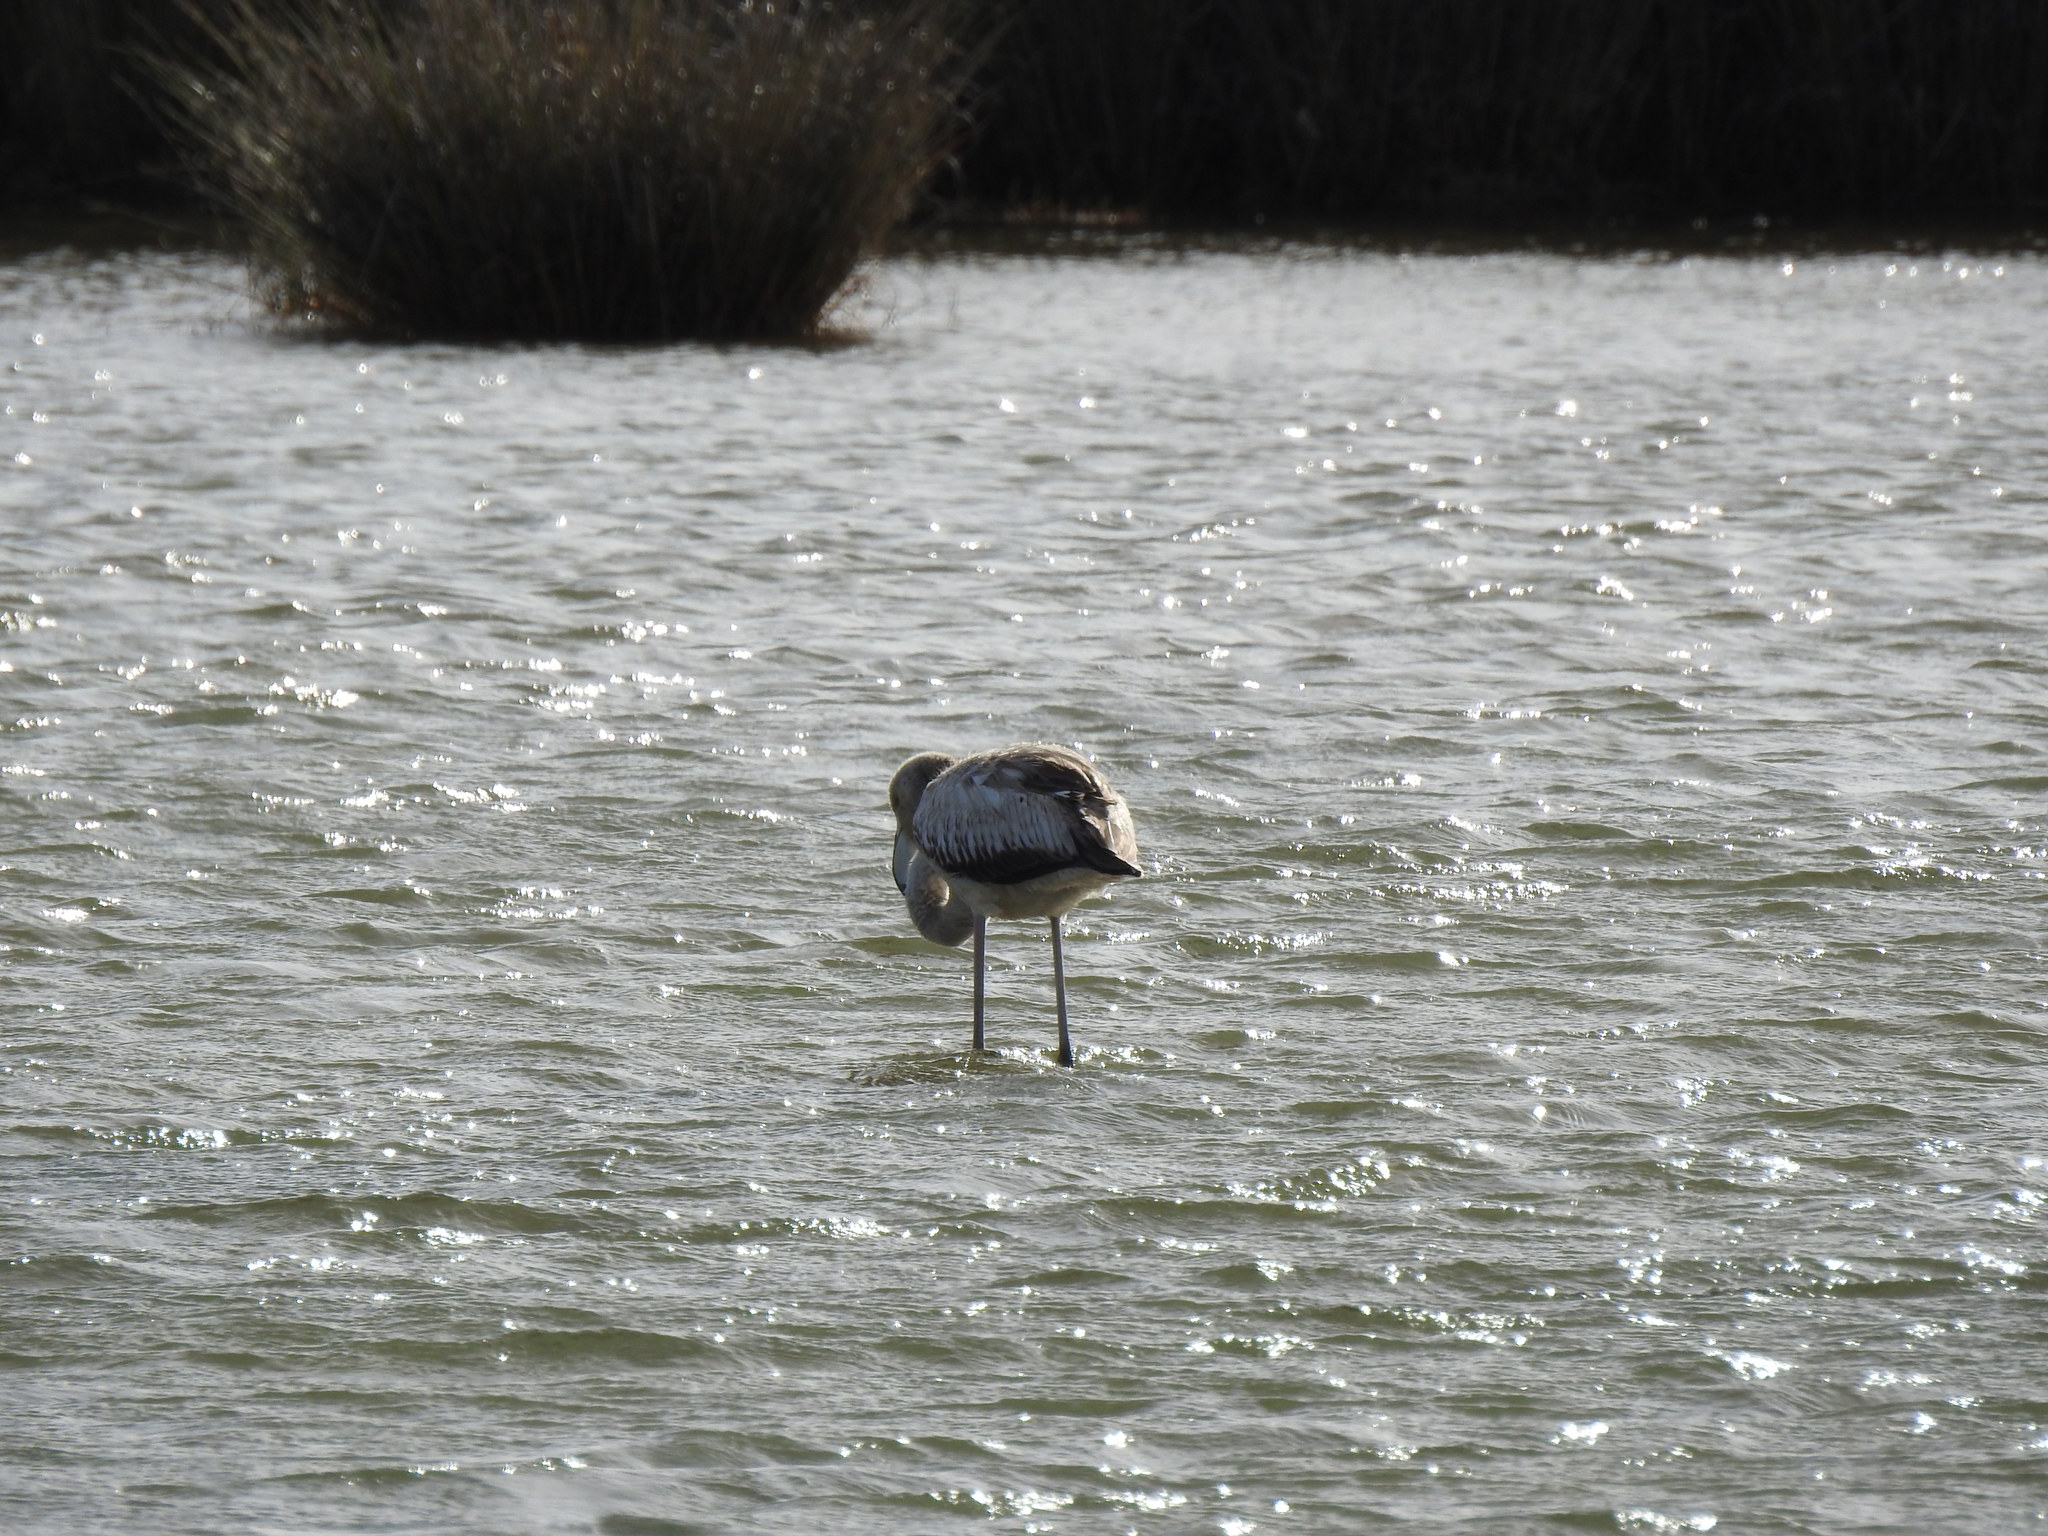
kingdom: Animalia
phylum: Chordata
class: Aves
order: Phoenicopteriformes
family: Phoenicopteridae
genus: Phoenicopterus
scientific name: Phoenicopterus roseus
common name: Greater flamingo
